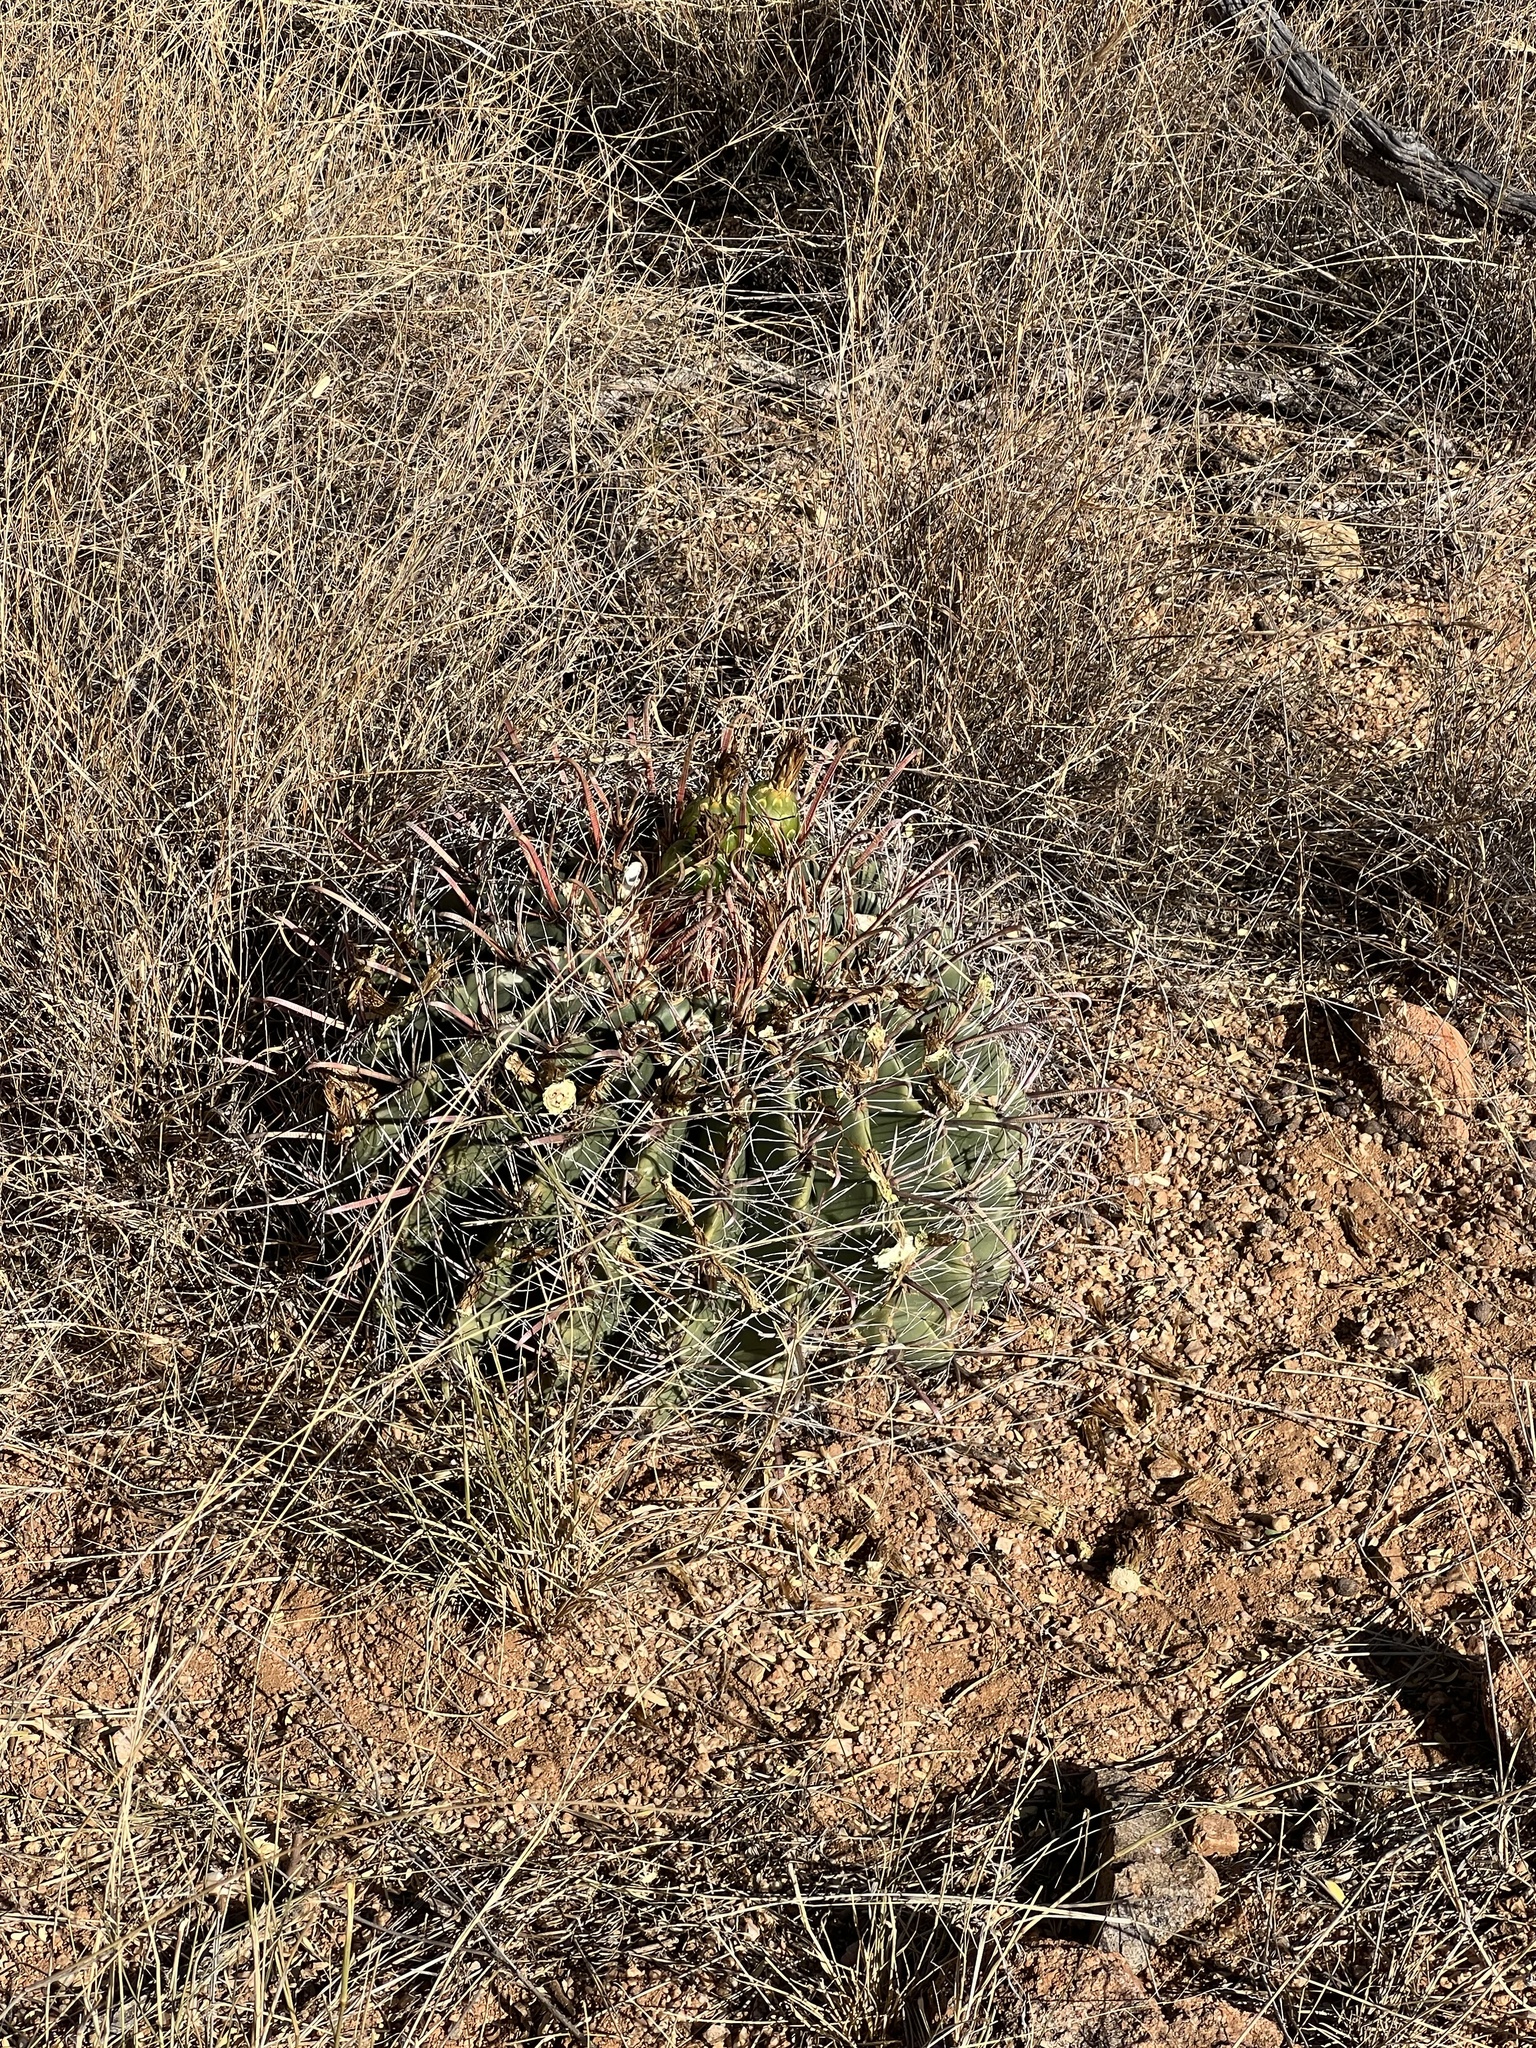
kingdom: Plantae
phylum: Tracheophyta
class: Magnoliopsida
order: Caryophyllales
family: Cactaceae
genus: Ferocactus
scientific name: Ferocactus wislizeni
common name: Candy barrel cactus
